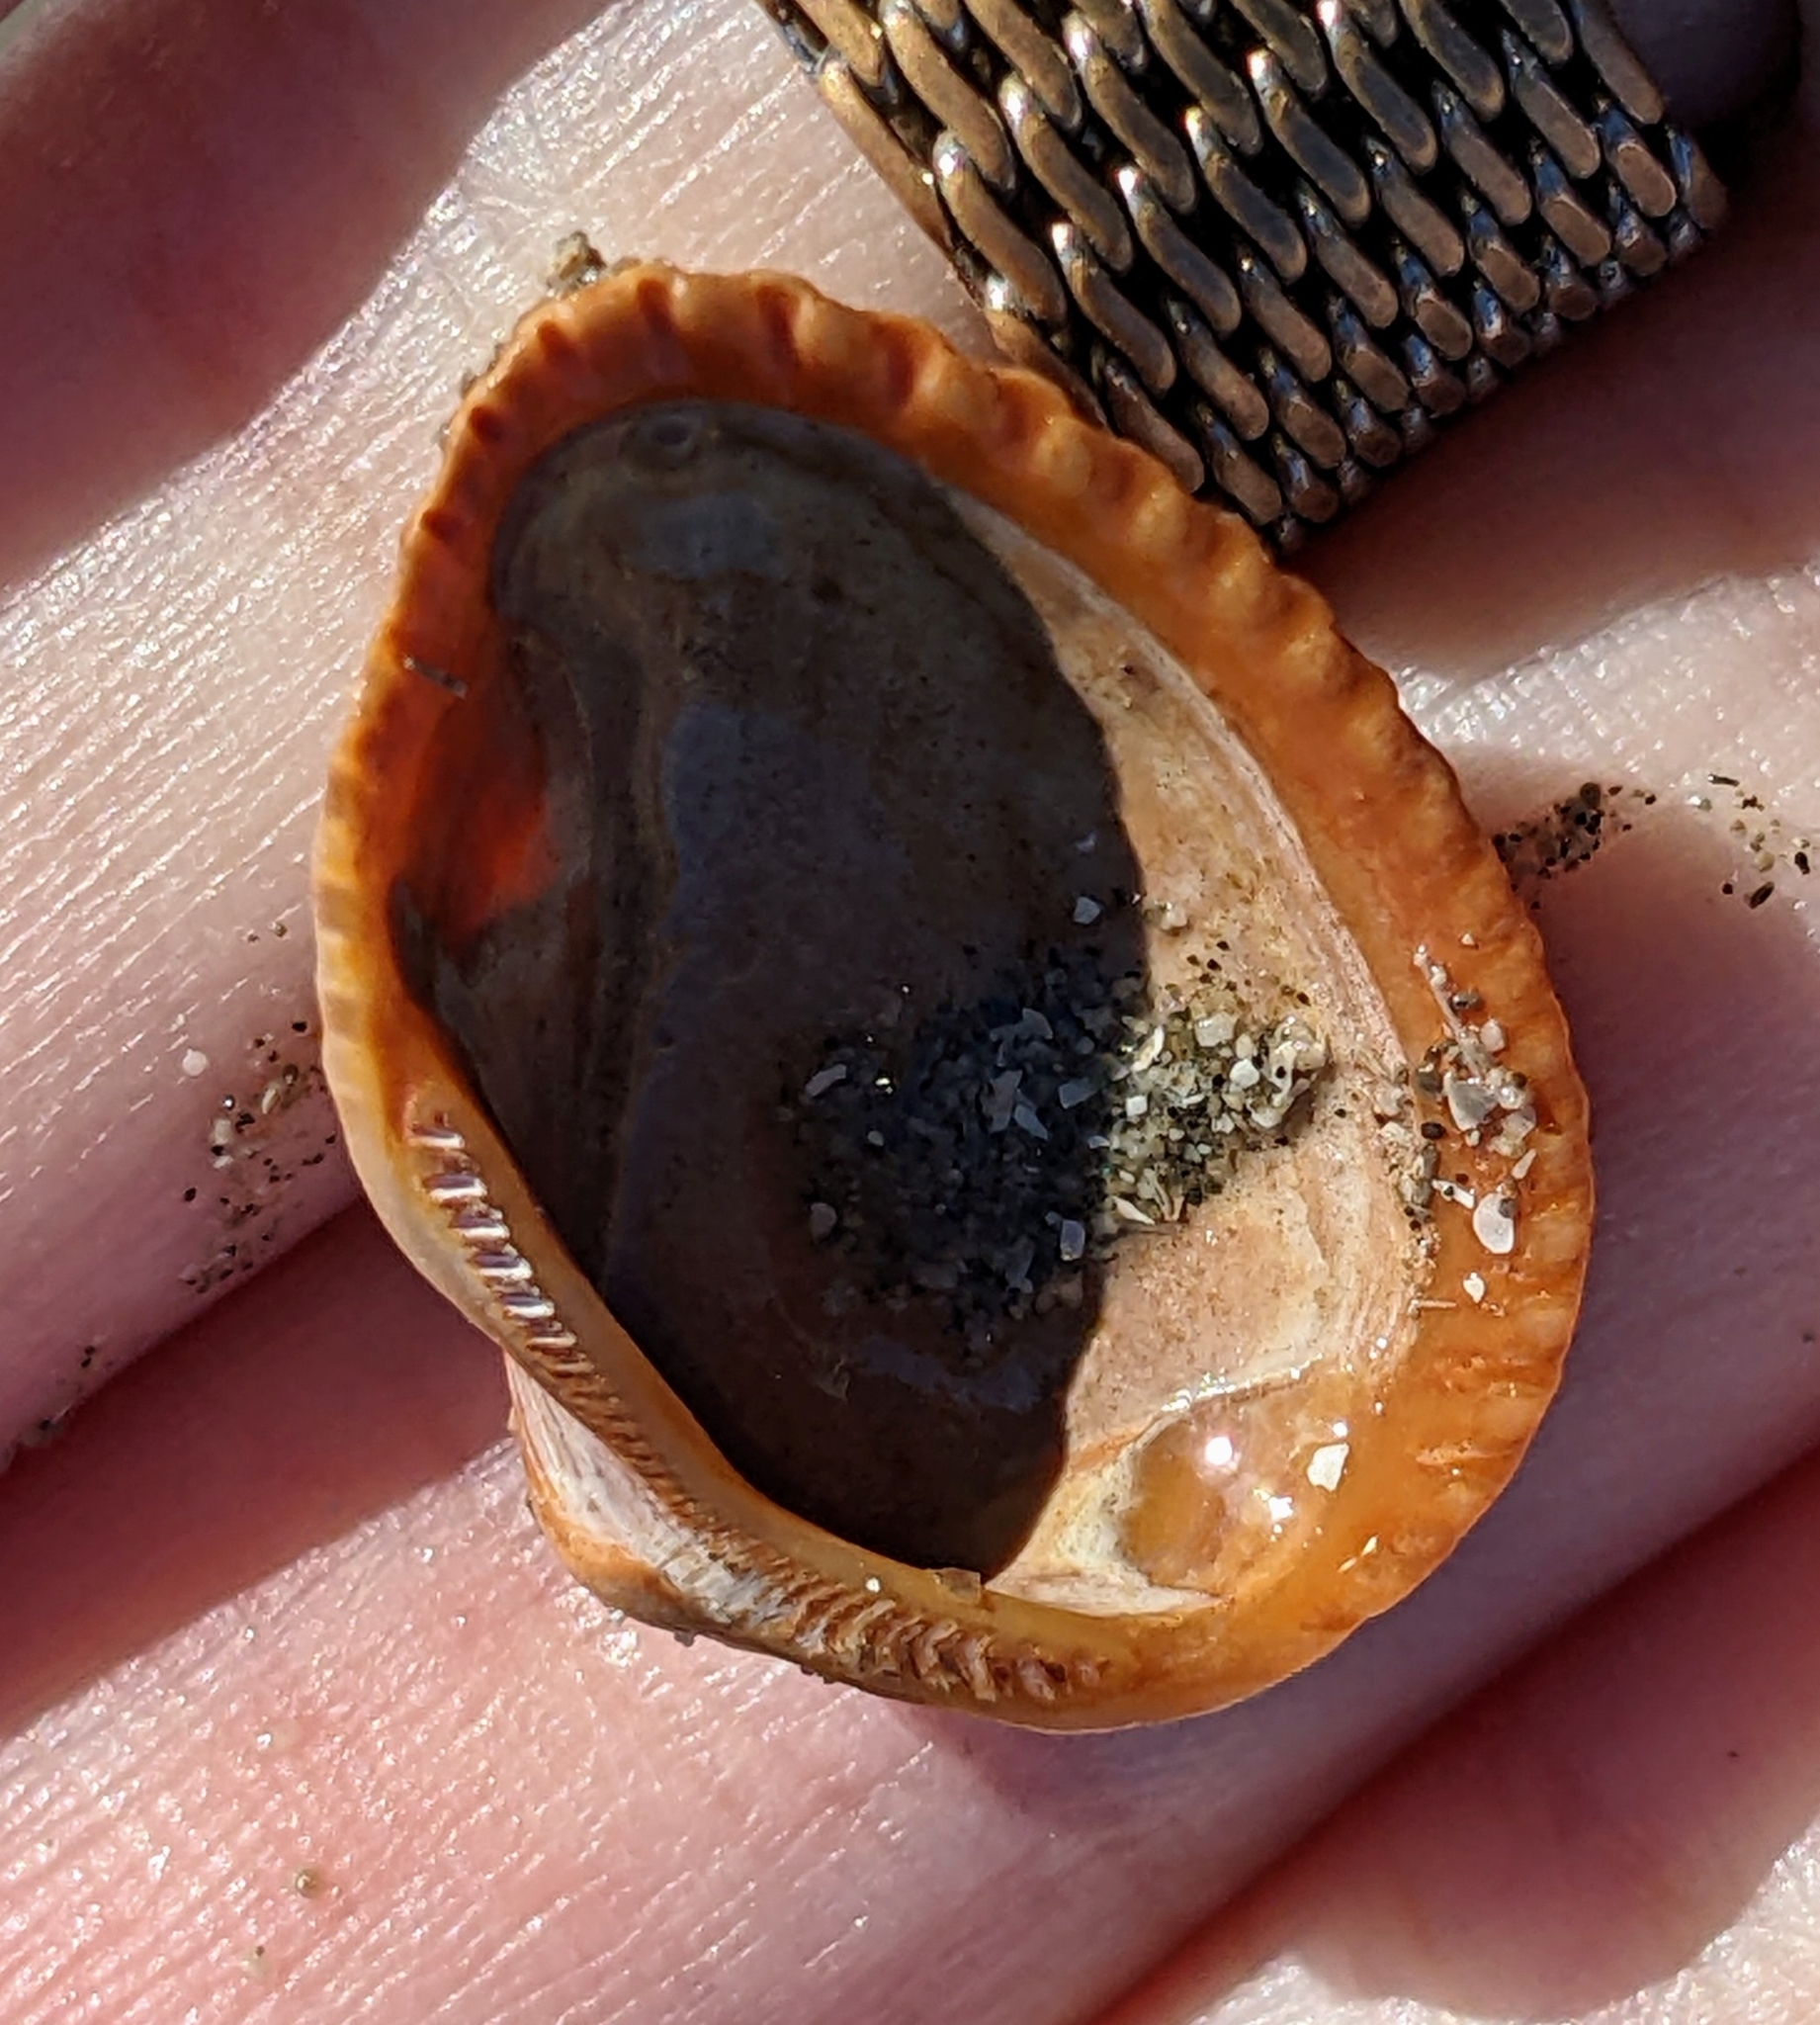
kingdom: Animalia
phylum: Mollusca
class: Bivalvia
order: Arcida
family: Noetiidae
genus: Noetia
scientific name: Noetia ponderosa
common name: Ponderous ark
